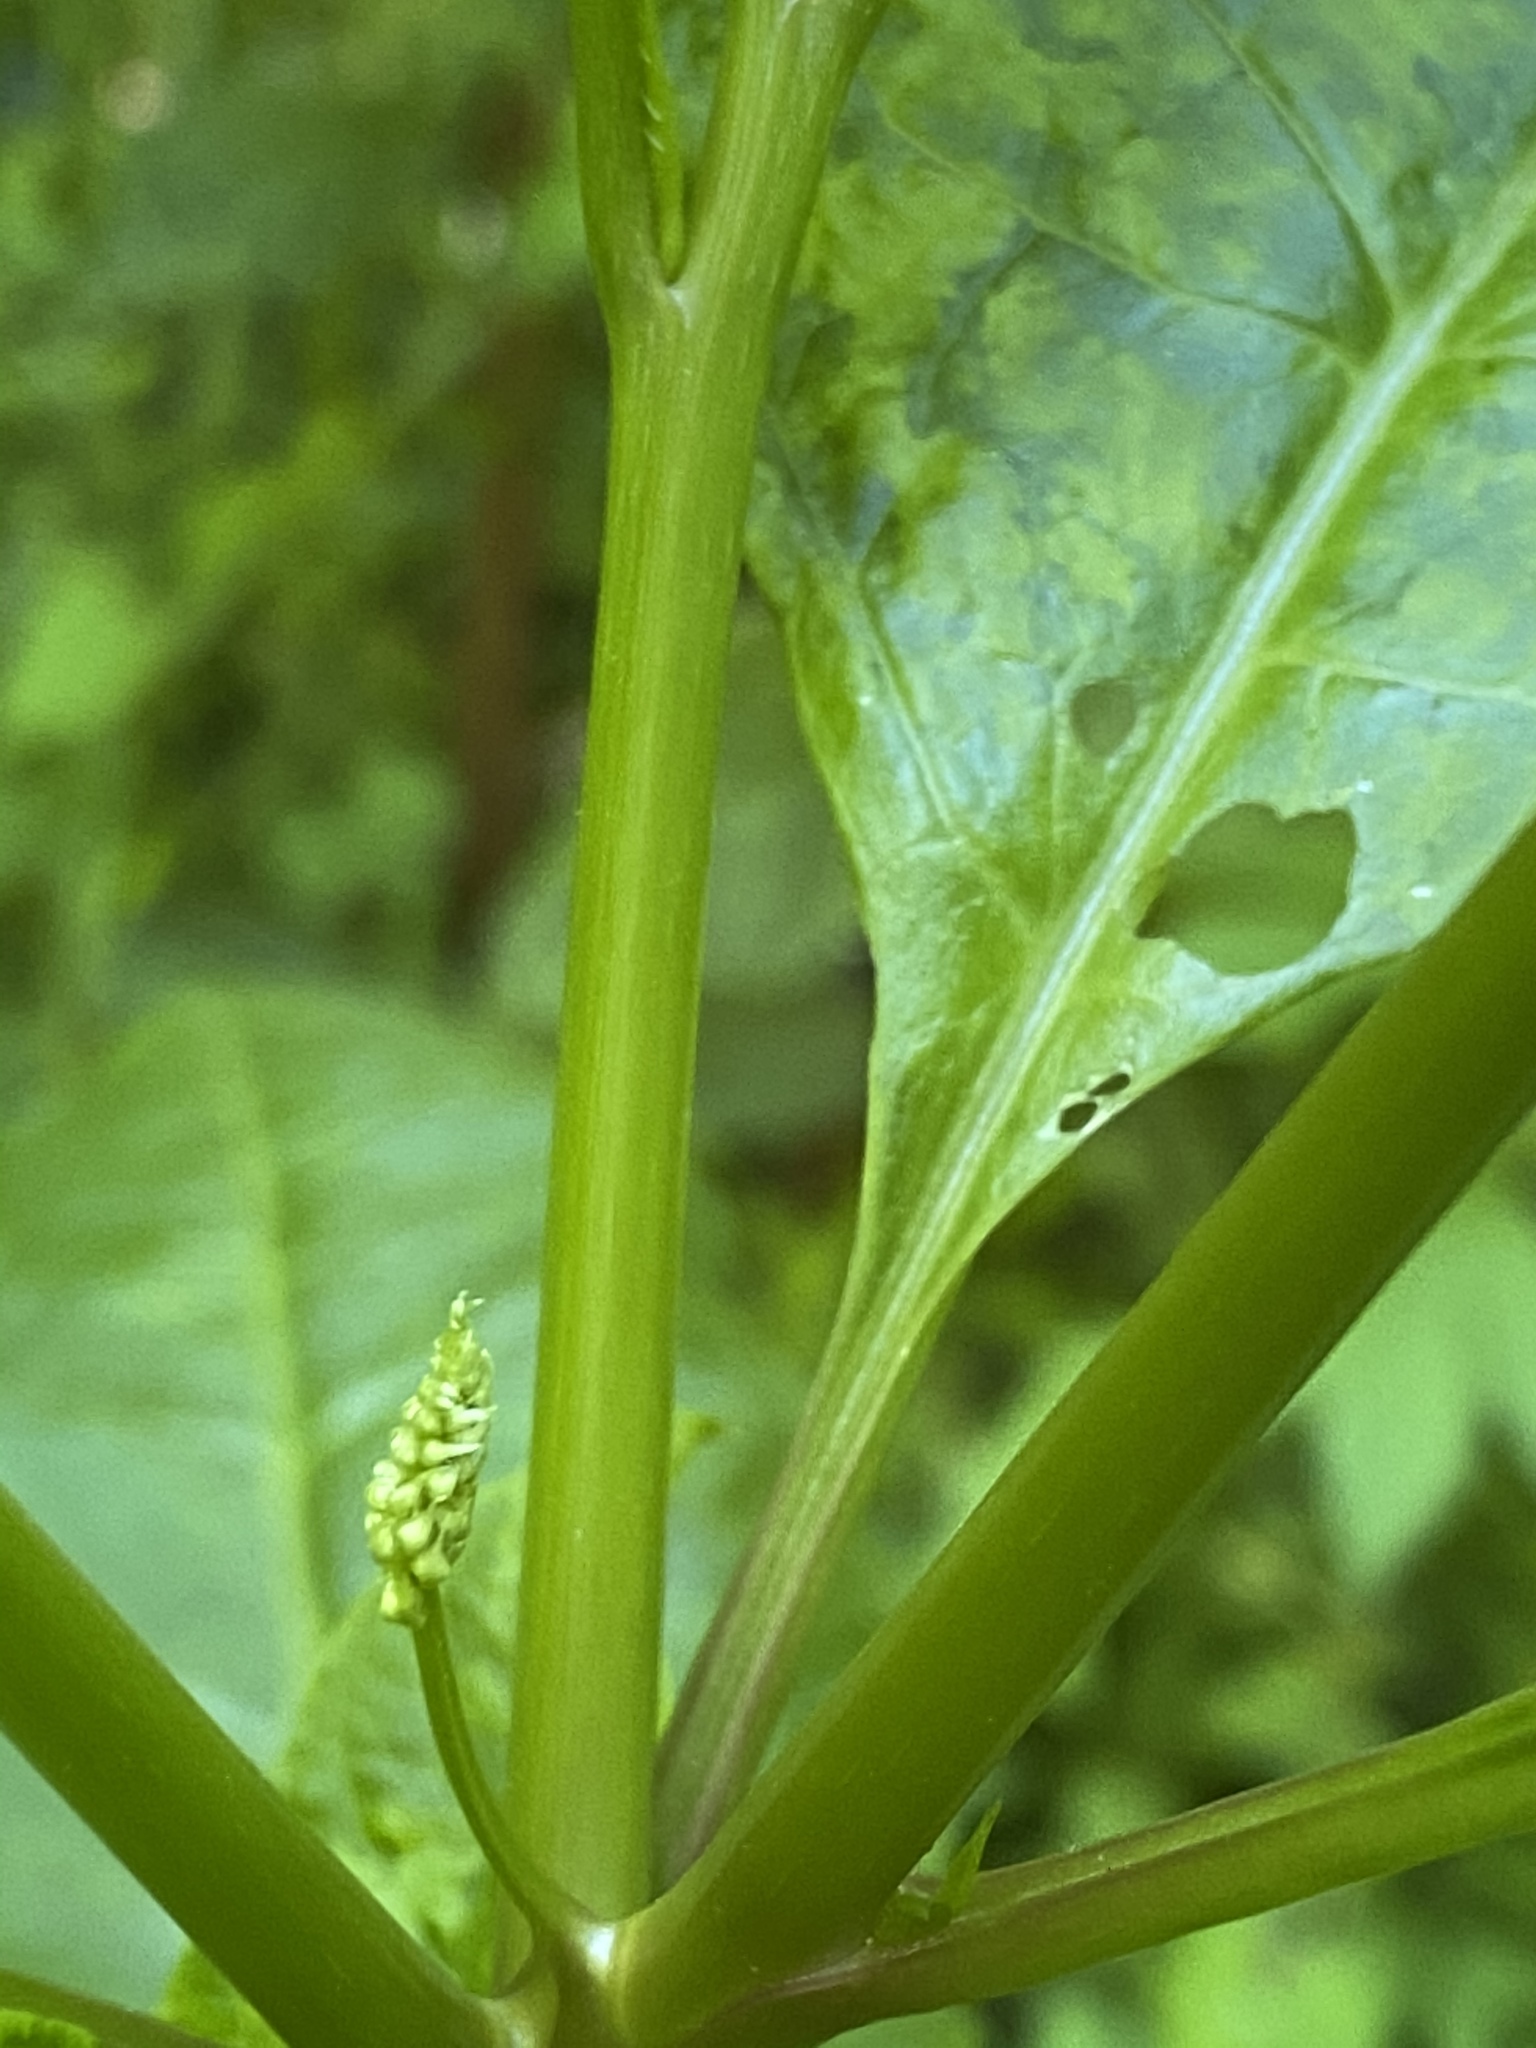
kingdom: Plantae
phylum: Tracheophyta
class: Magnoliopsida
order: Caryophyllales
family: Phytolaccaceae
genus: Phytolacca
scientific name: Phytolacca americana
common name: American pokeweed
